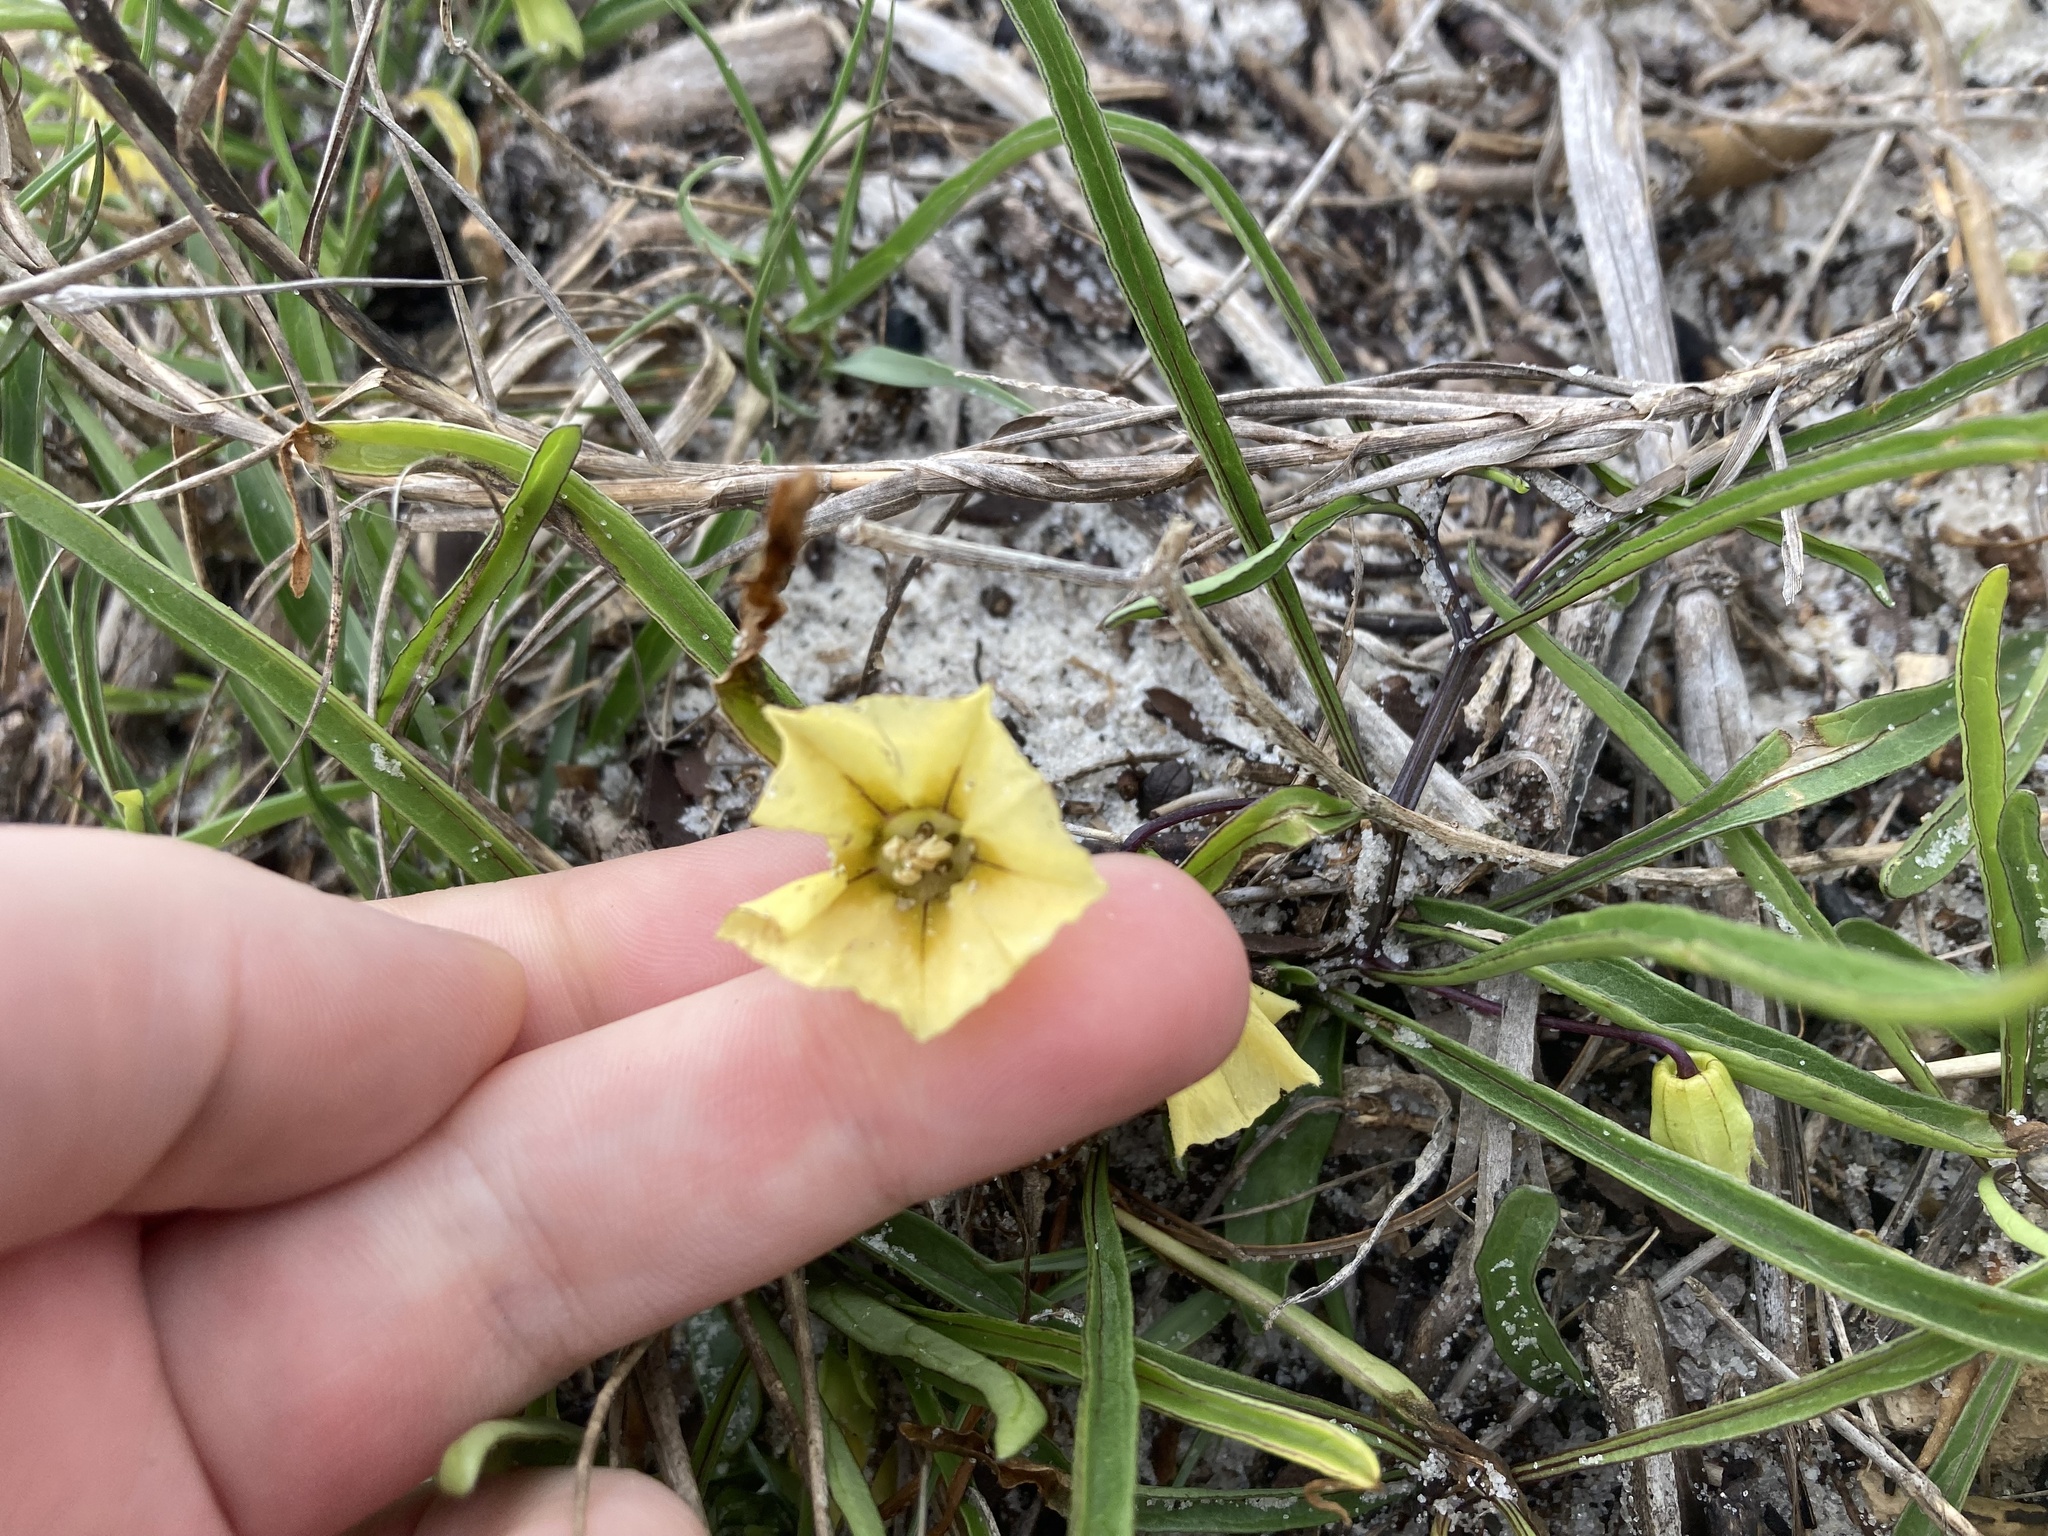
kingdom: Plantae
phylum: Tracheophyta
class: Magnoliopsida
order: Solanales
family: Solanaceae
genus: Physalis
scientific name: Physalis angustifolia
